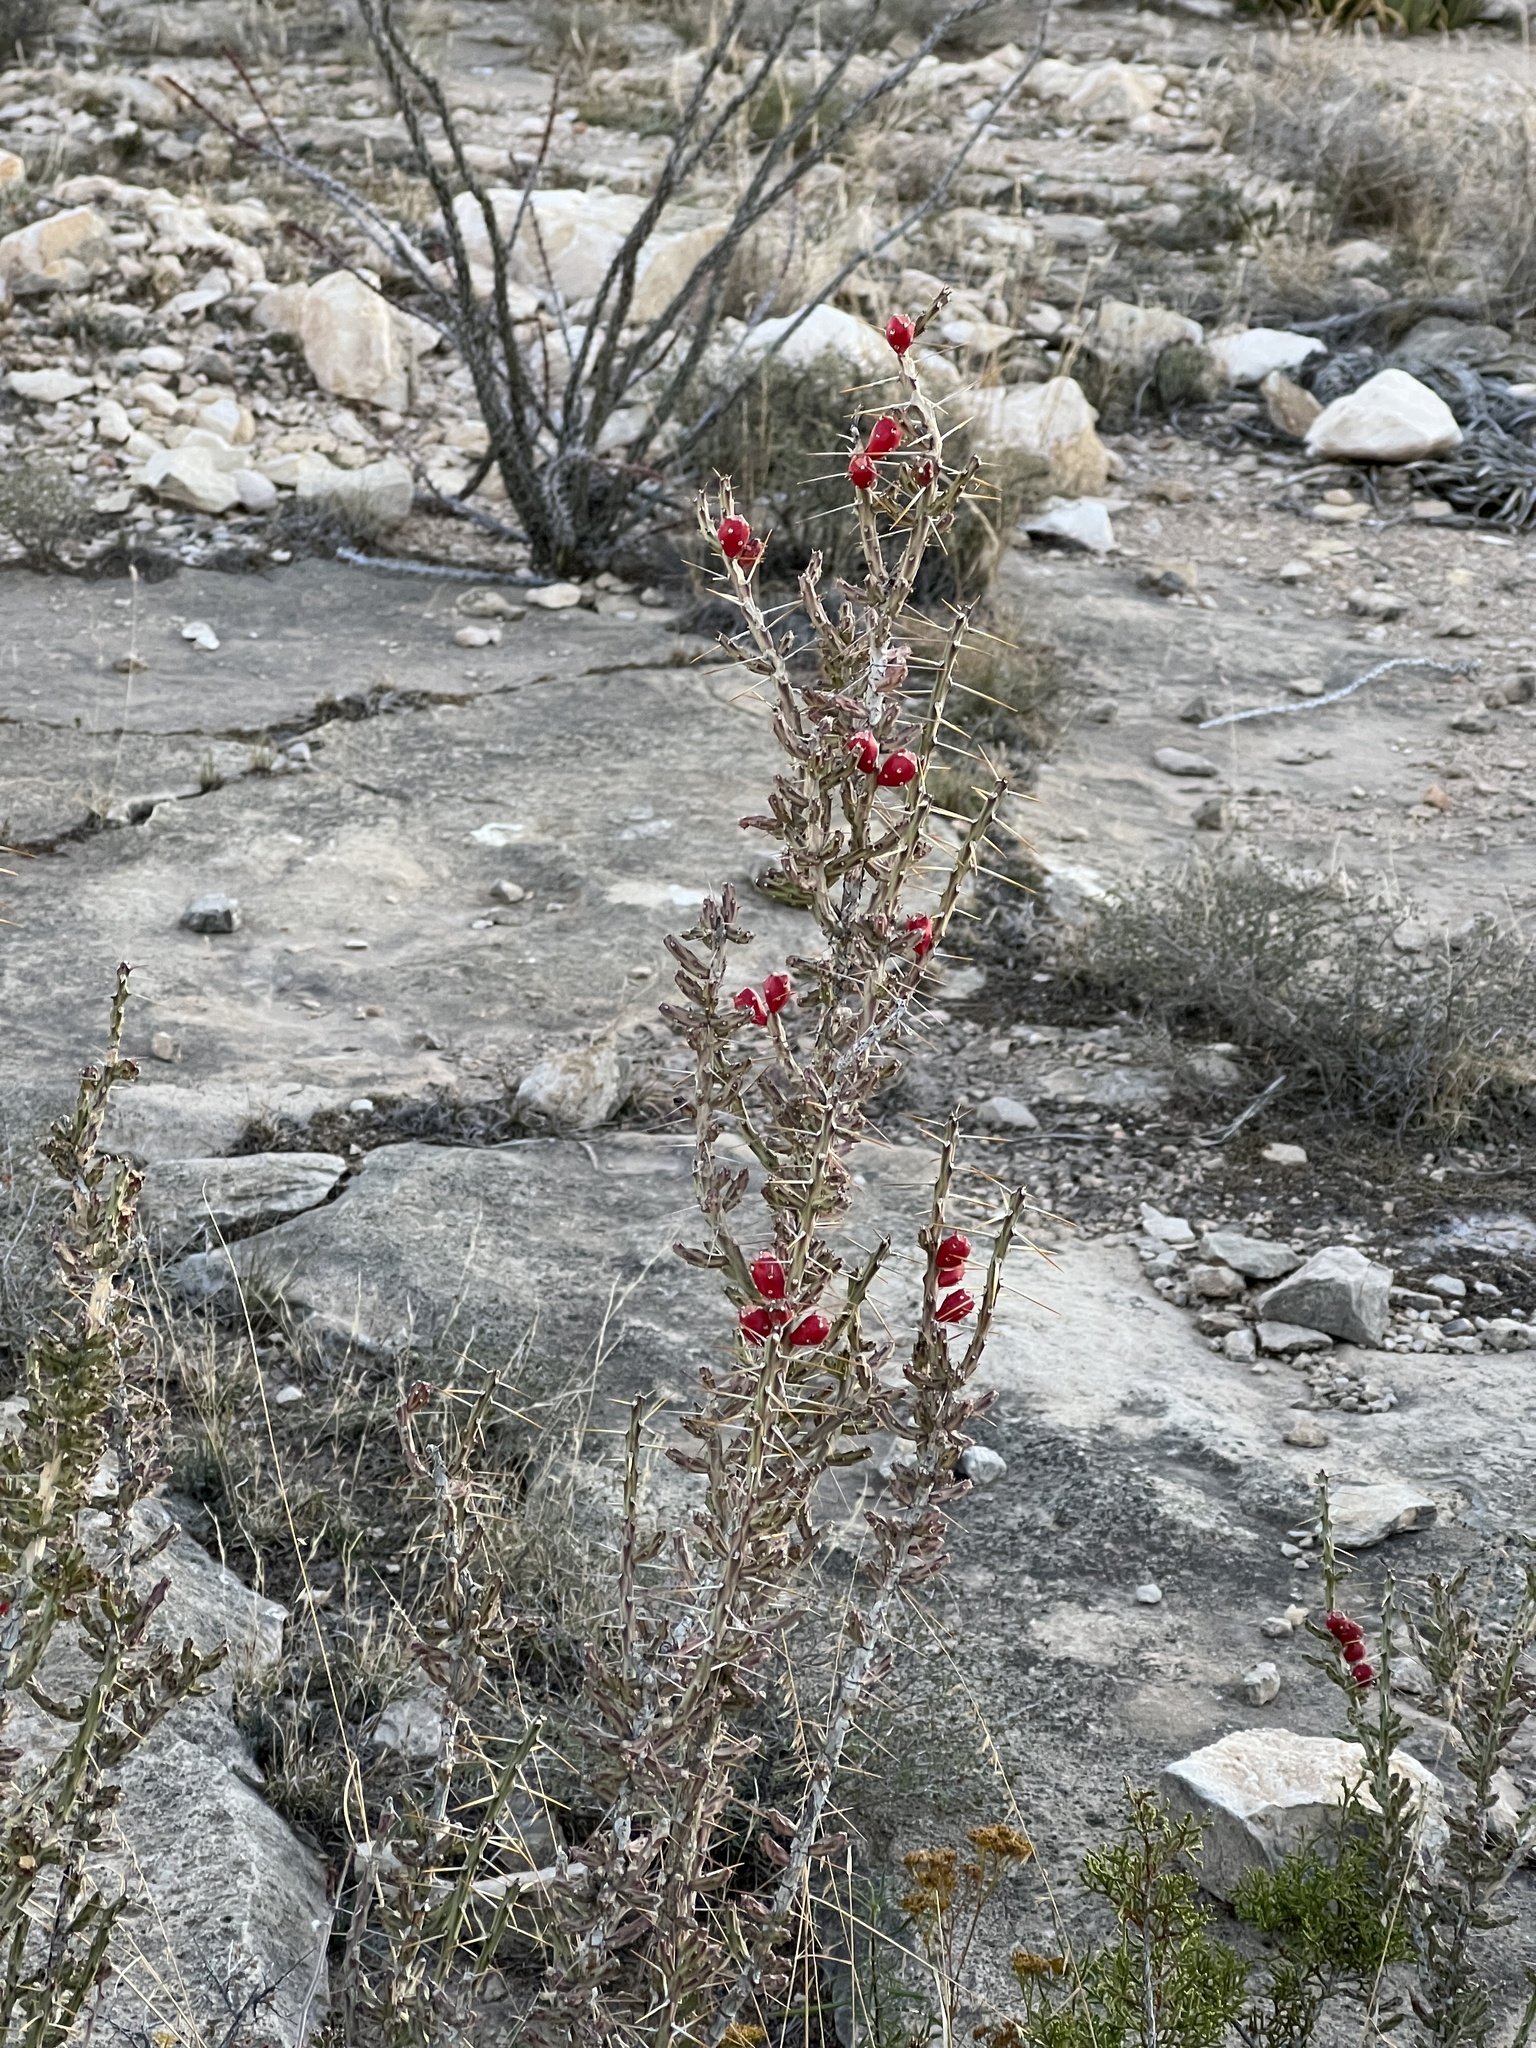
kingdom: Plantae
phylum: Tracheophyta
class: Magnoliopsida
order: Caryophyllales
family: Cactaceae
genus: Cylindropuntia
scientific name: Cylindropuntia leptocaulis
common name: Christmas cactus
